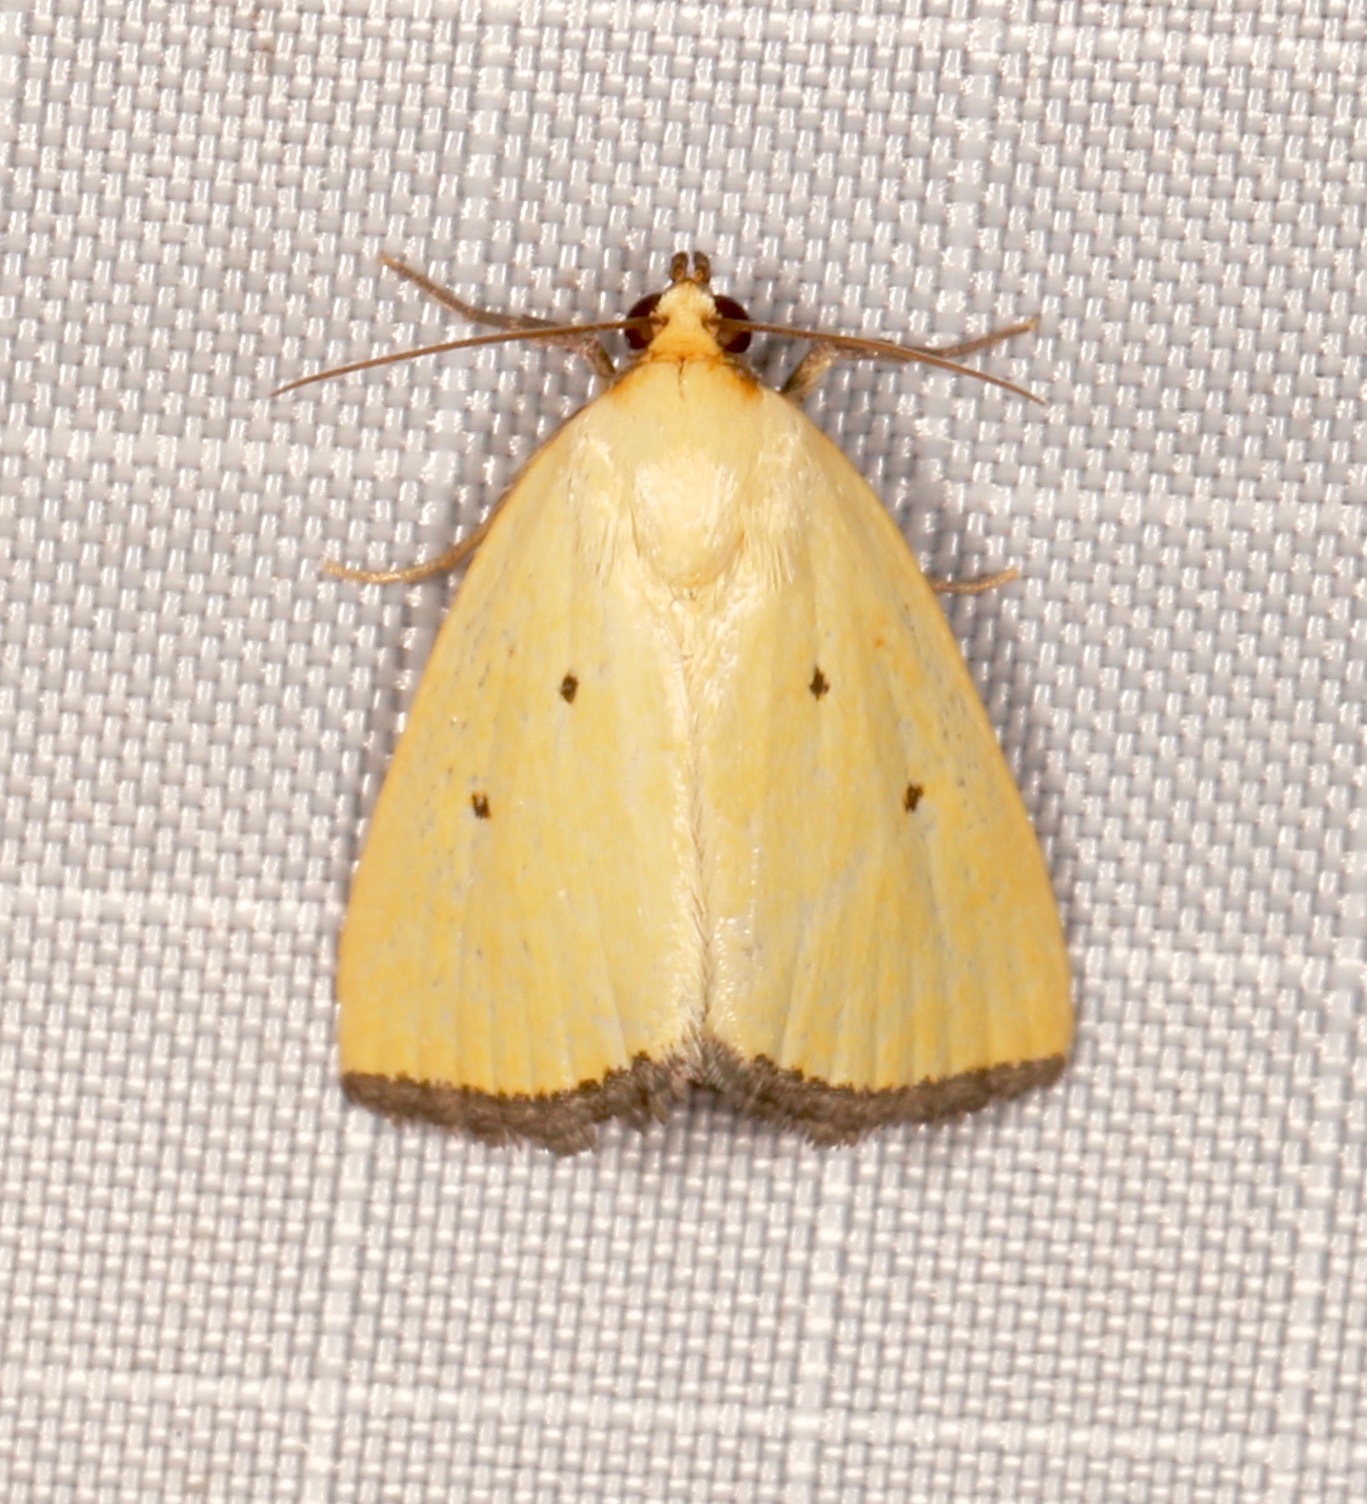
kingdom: Animalia
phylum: Arthropoda
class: Insecta
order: Lepidoptera
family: Noctuidae
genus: Marimatha
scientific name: Marimatha nigrofimbria
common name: Black-bordered lemon moth
